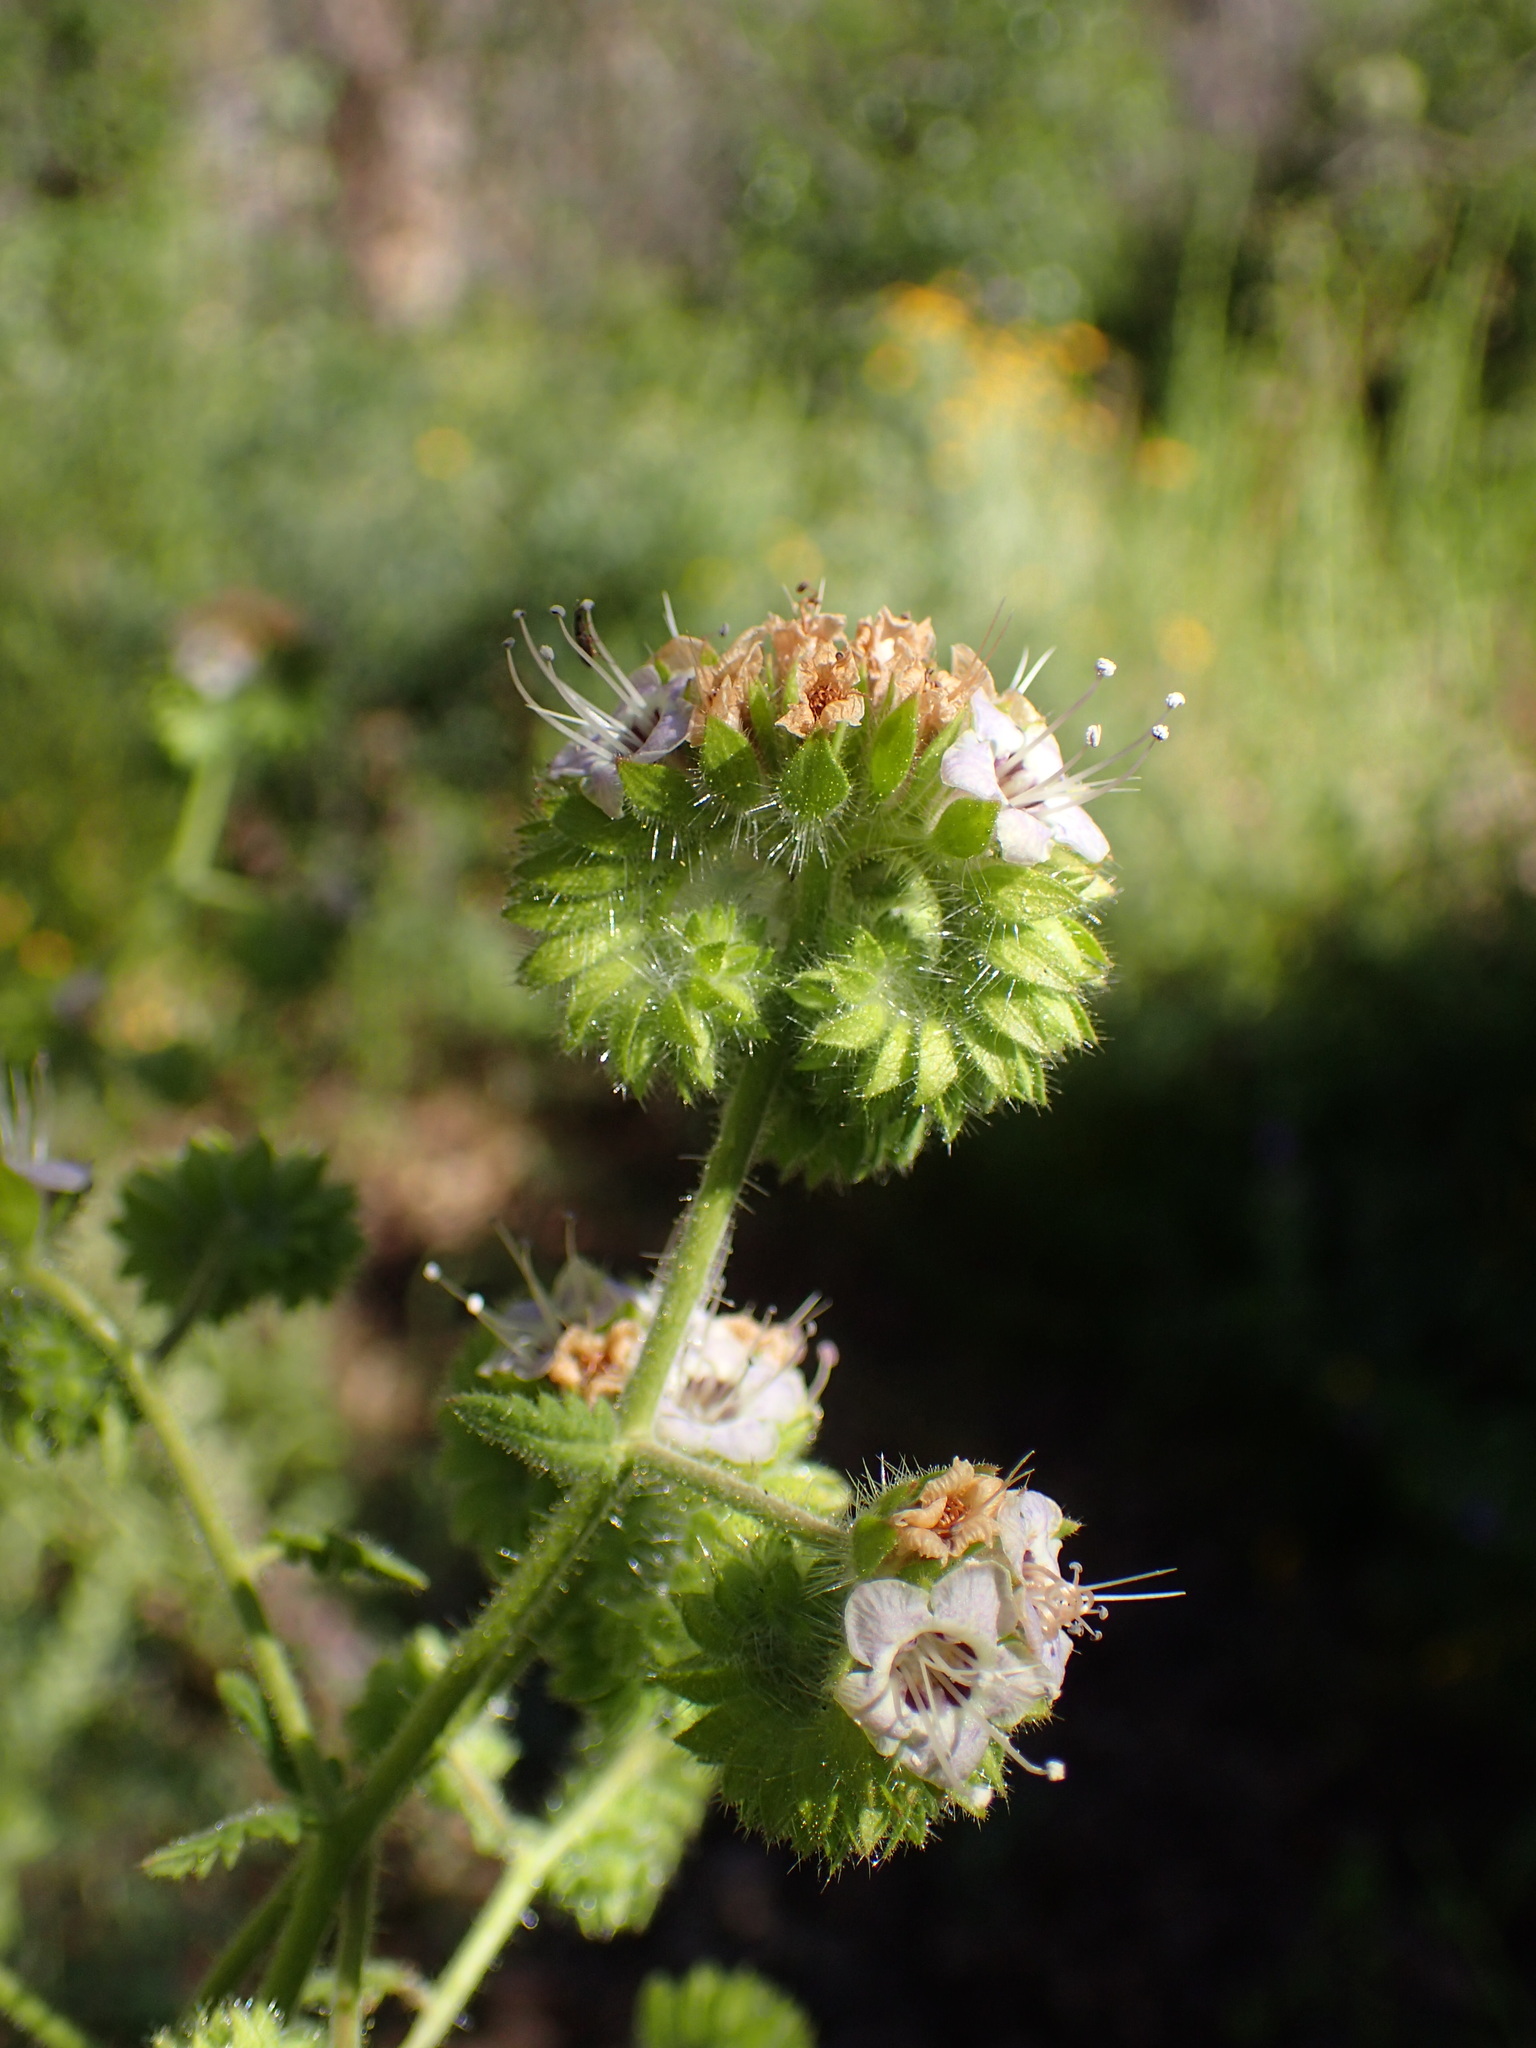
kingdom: Plantae
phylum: Tracheophyta
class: Magnoliopsida
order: Boraginales
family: Hydrophyllaceae
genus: Phacelia
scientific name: Phacelia ramosissima
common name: Branching phacelia
